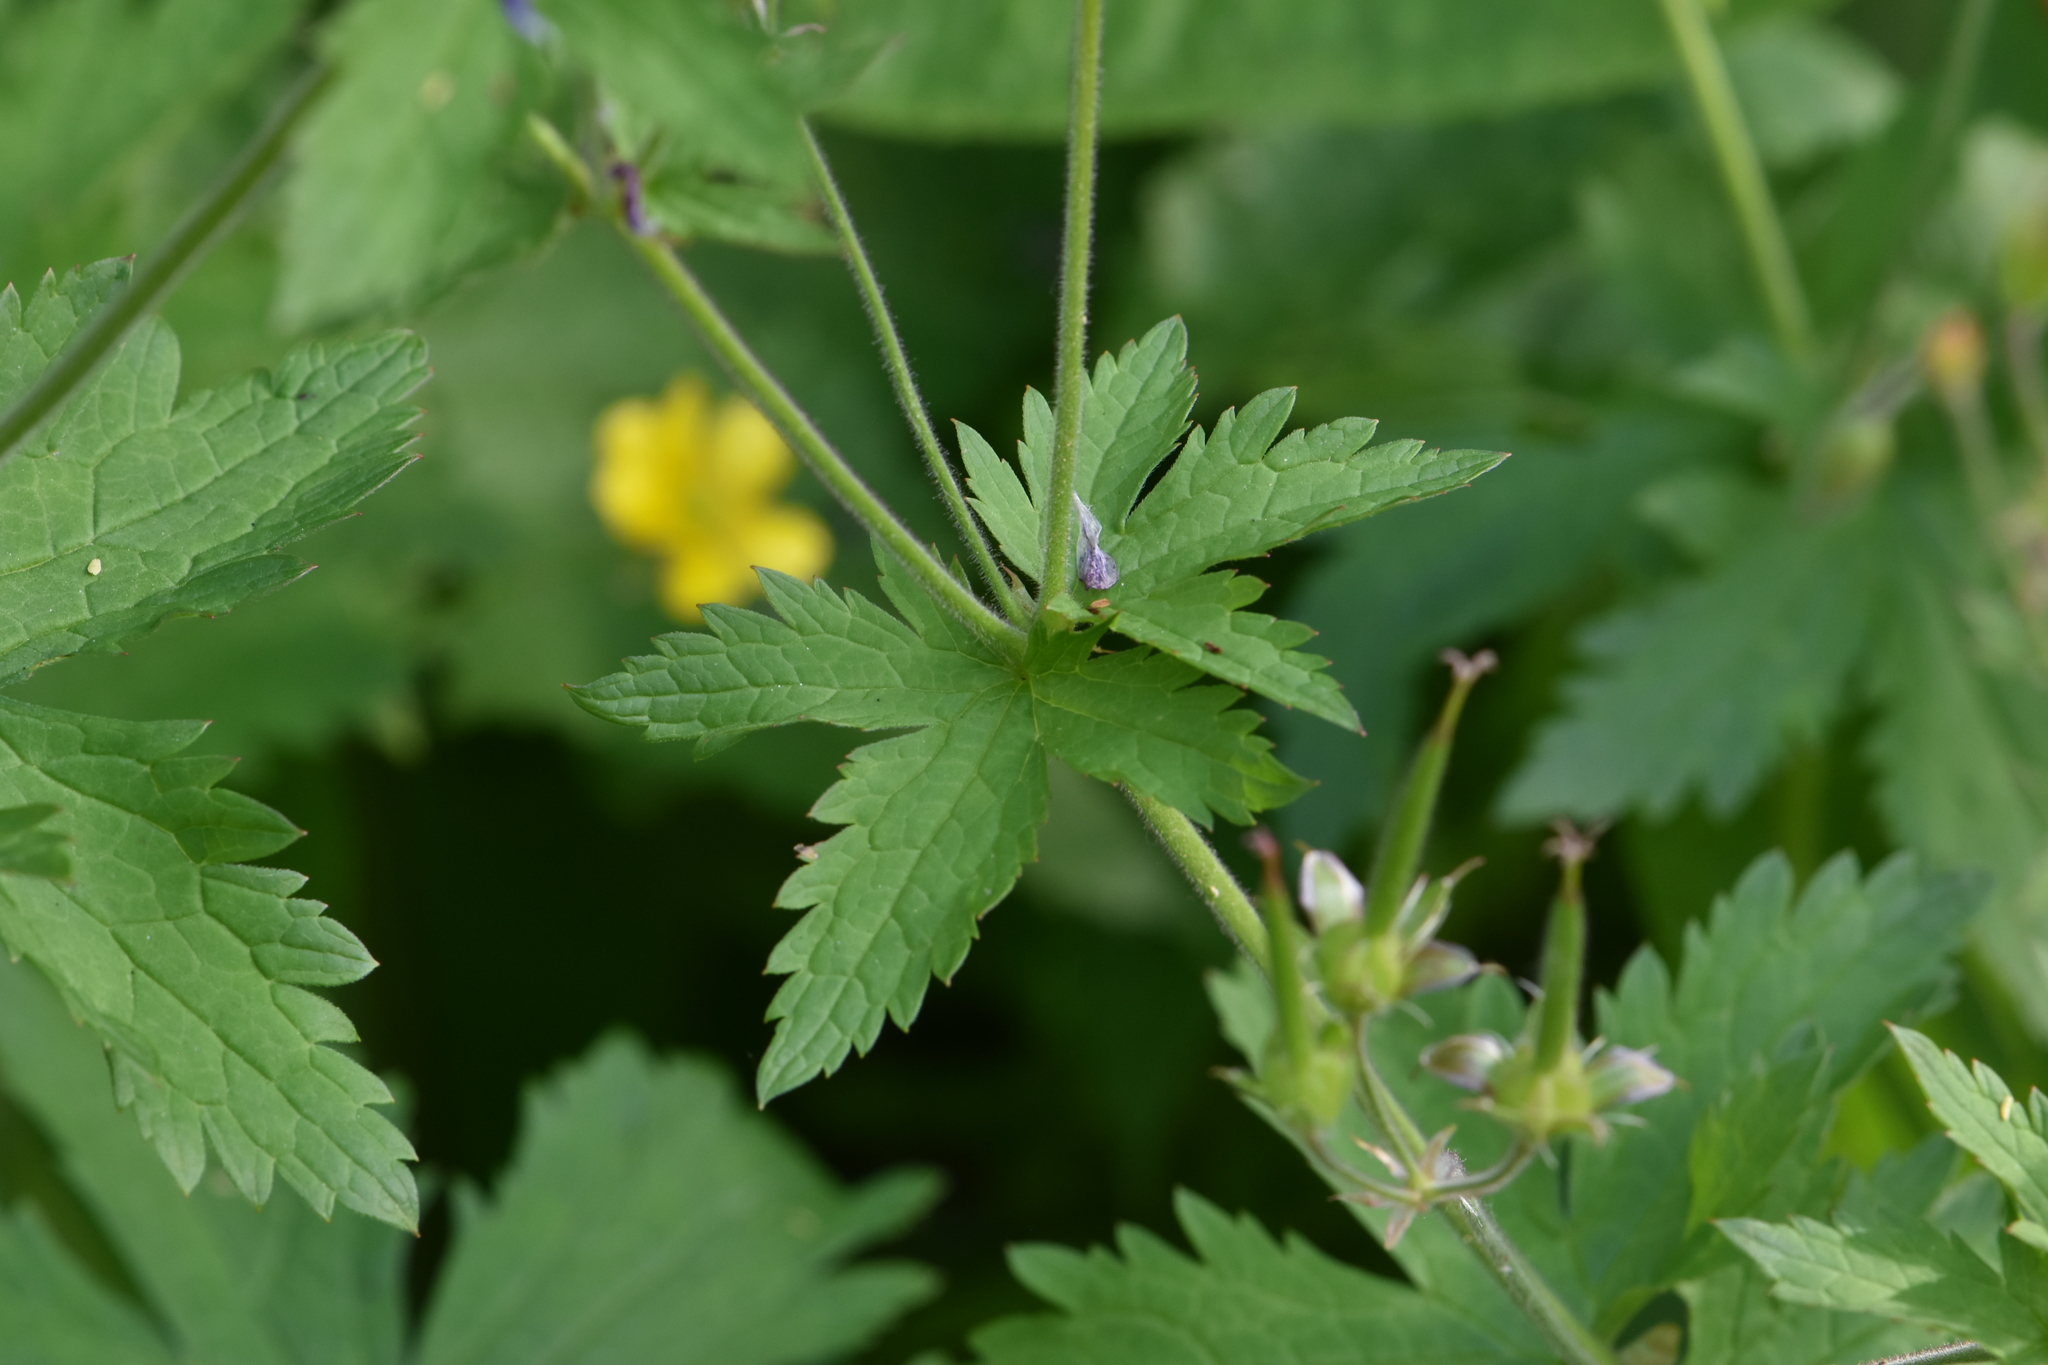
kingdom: Plantae
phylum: Tracheophyta
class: Magnoliopsida
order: Geraniales
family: Geraniaceae
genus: Geranium
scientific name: Geranium sylvaticum
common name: Wood crane's-bill
